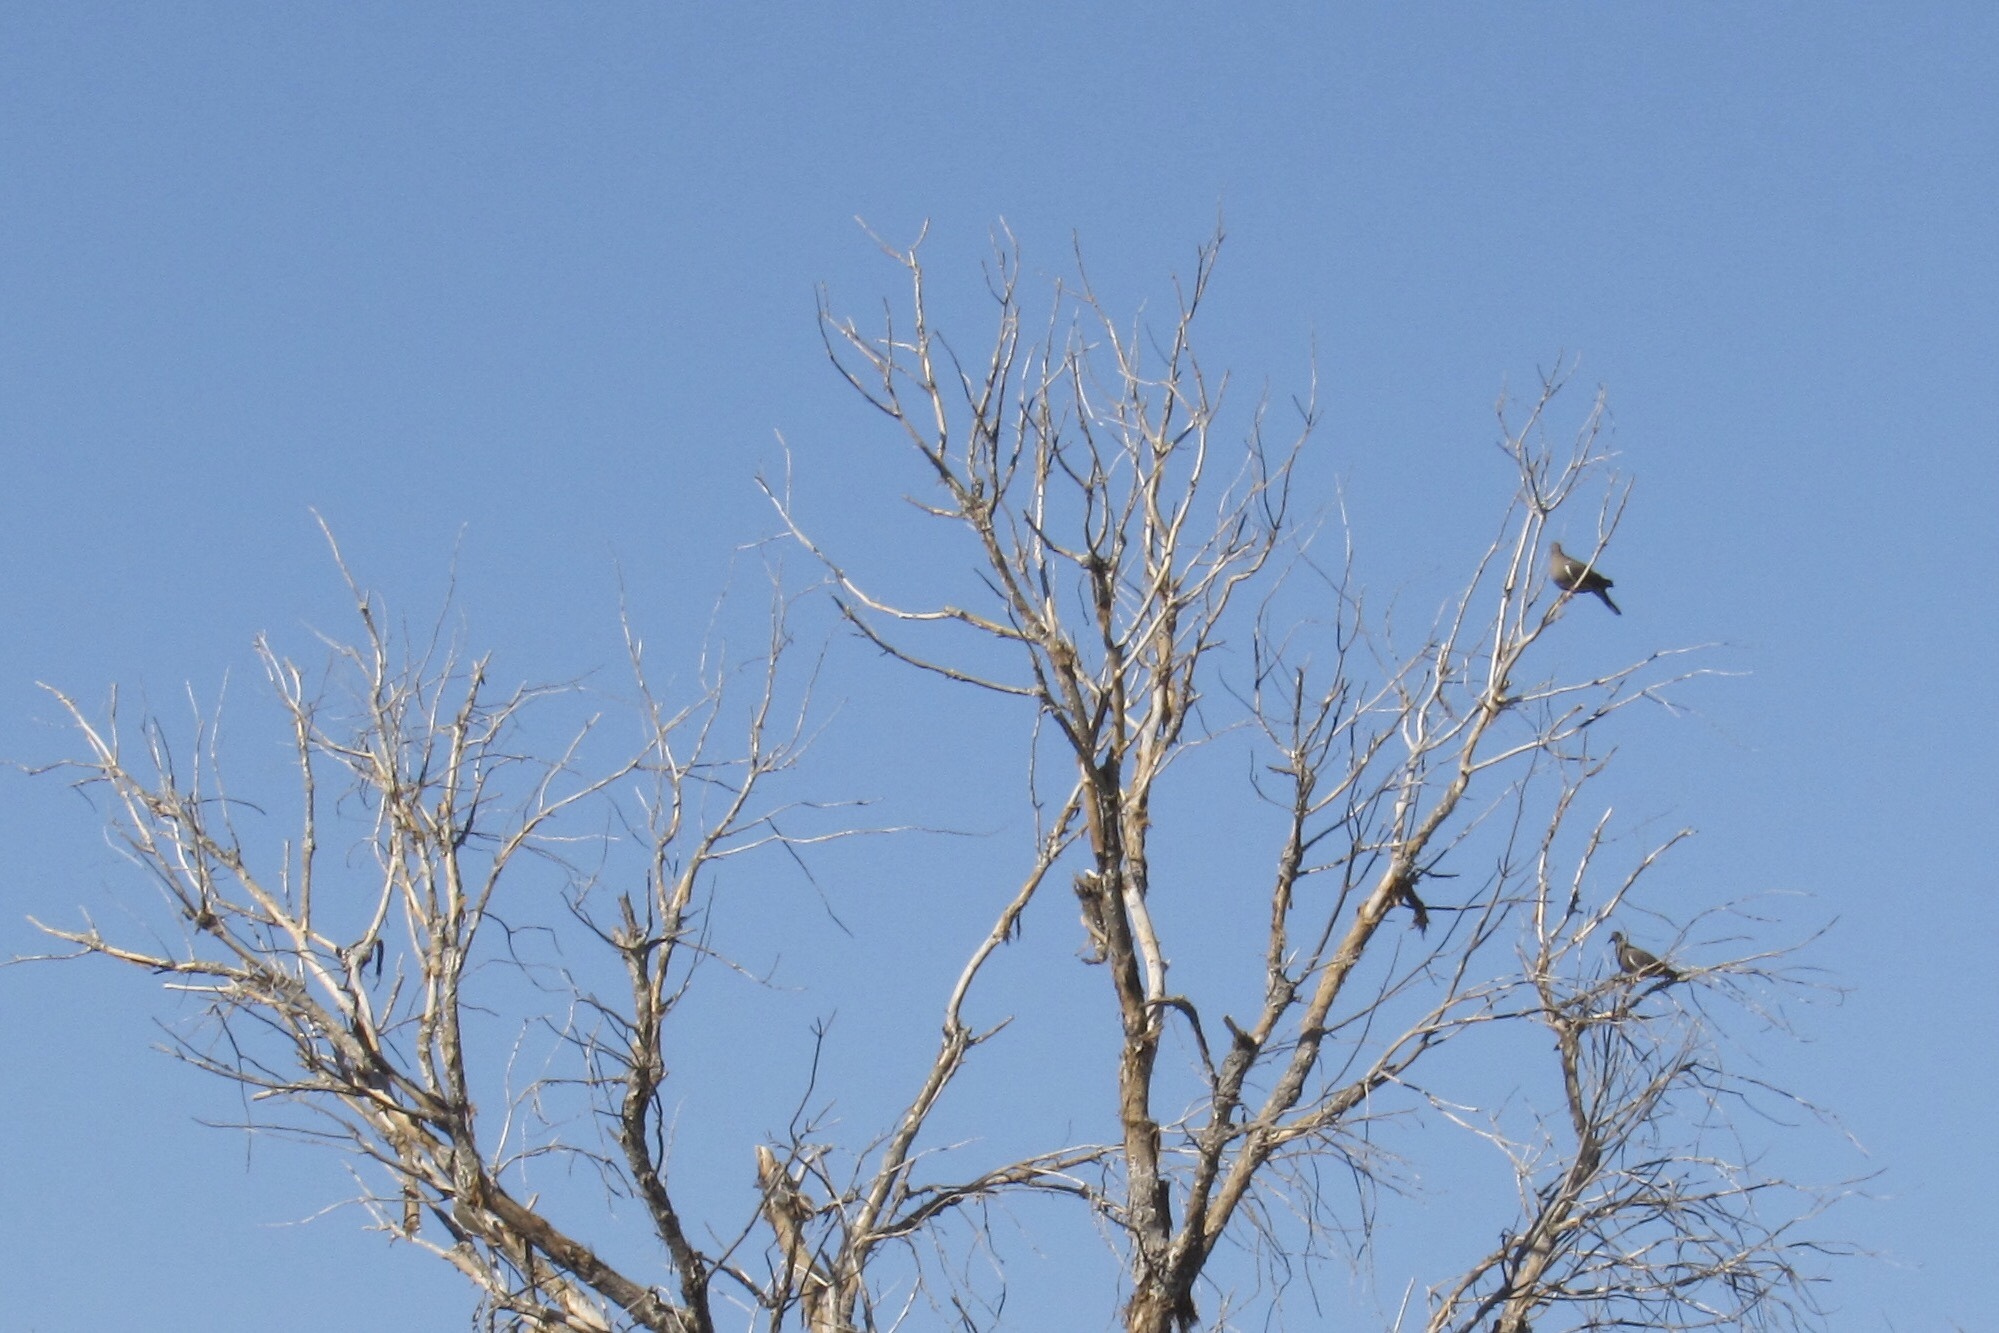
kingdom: Animalia
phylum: Chordata
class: Aves
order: Columbiformes
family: Columbidae
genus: Zenaida
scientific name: Zenaida asiatica
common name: White-winged dove
